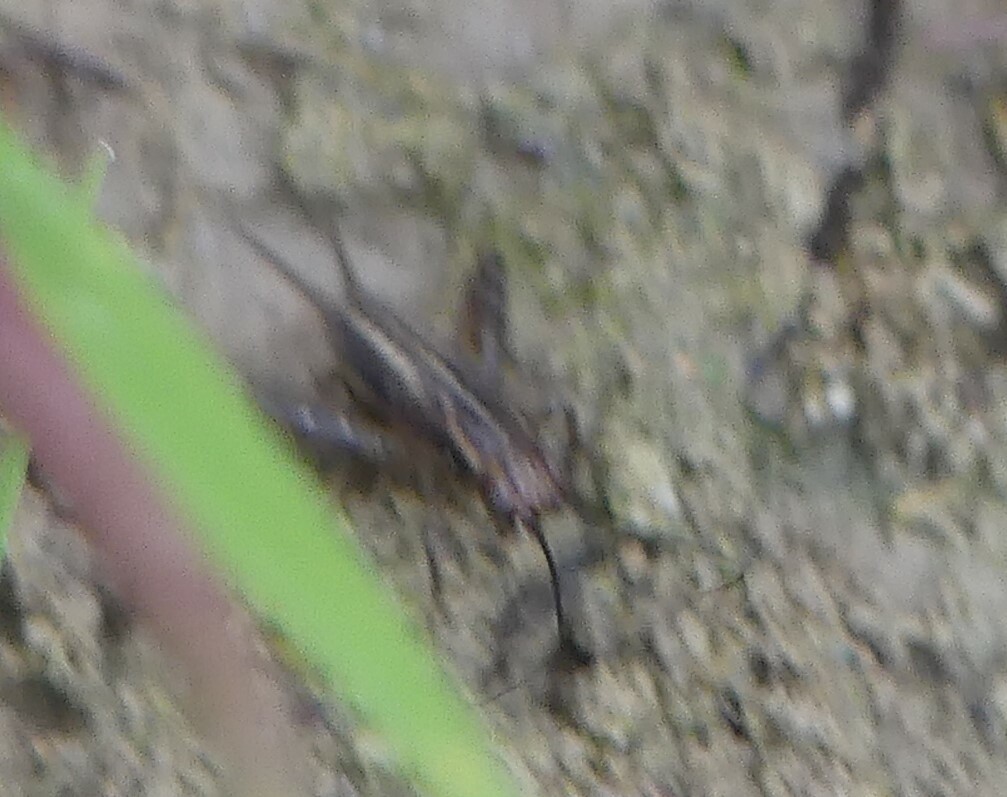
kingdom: Animalia
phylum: Arthropoda
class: Insecta
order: Orthoptera
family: Trigonidiidae
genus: Pteronemobius
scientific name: Pteronemobius heydenii
